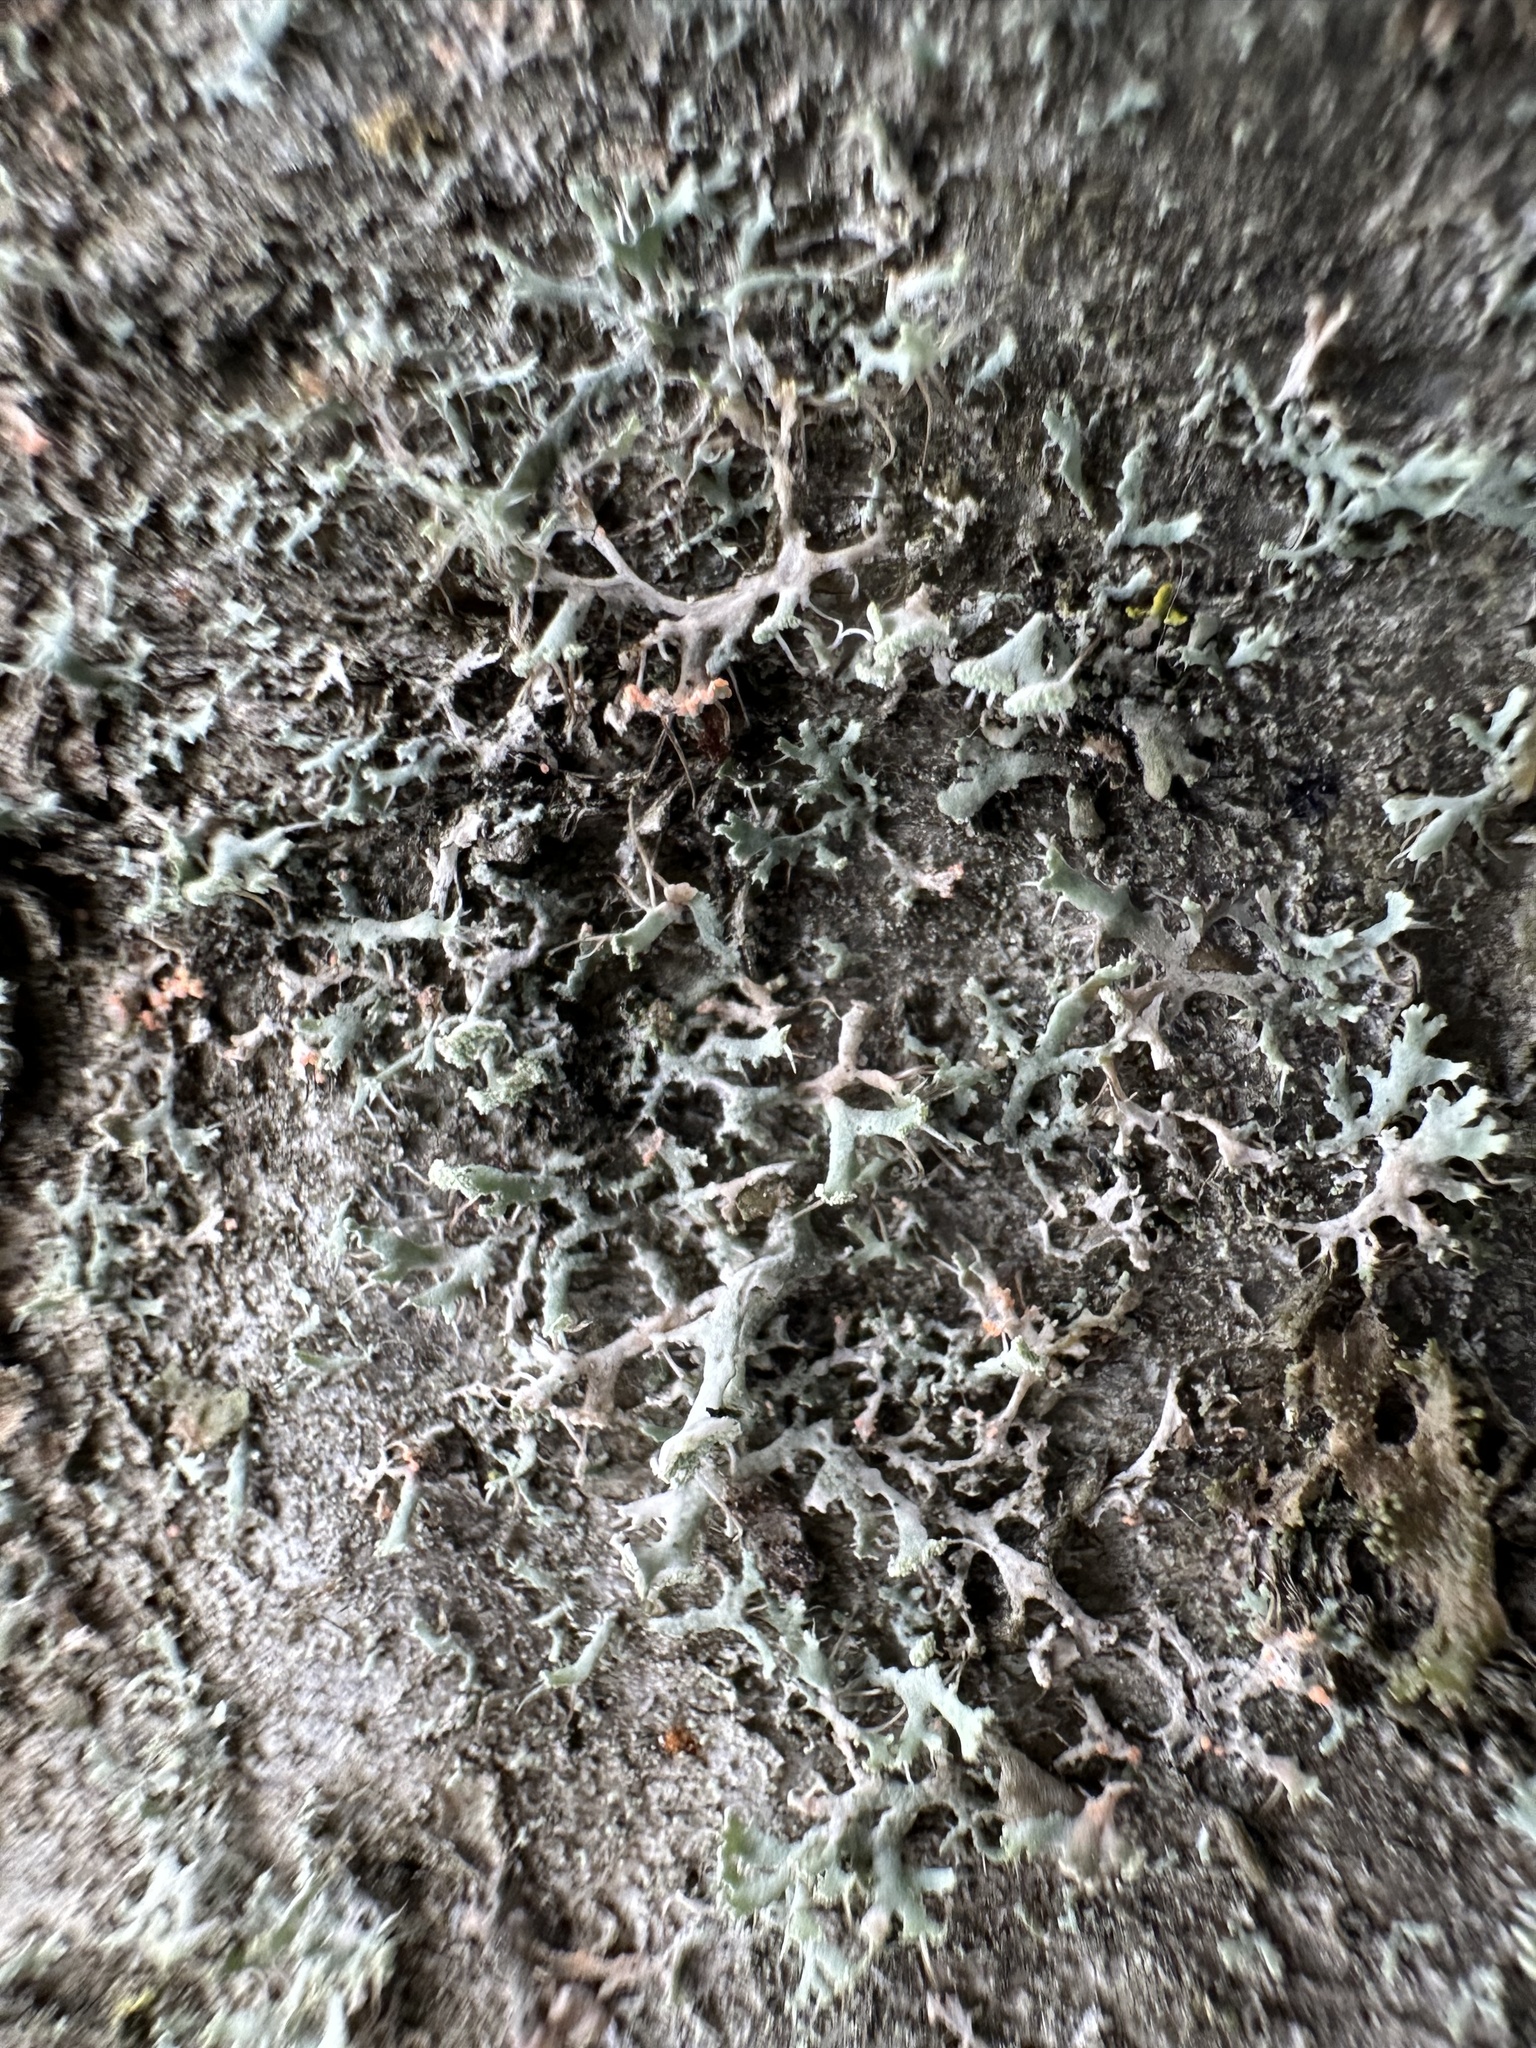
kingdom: Fungi
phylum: Ascomycota
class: Lecanoromycetes
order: Caliciales
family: Physciaceae
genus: Physcia
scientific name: Physcia tenella
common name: Fringed rosette lichen
